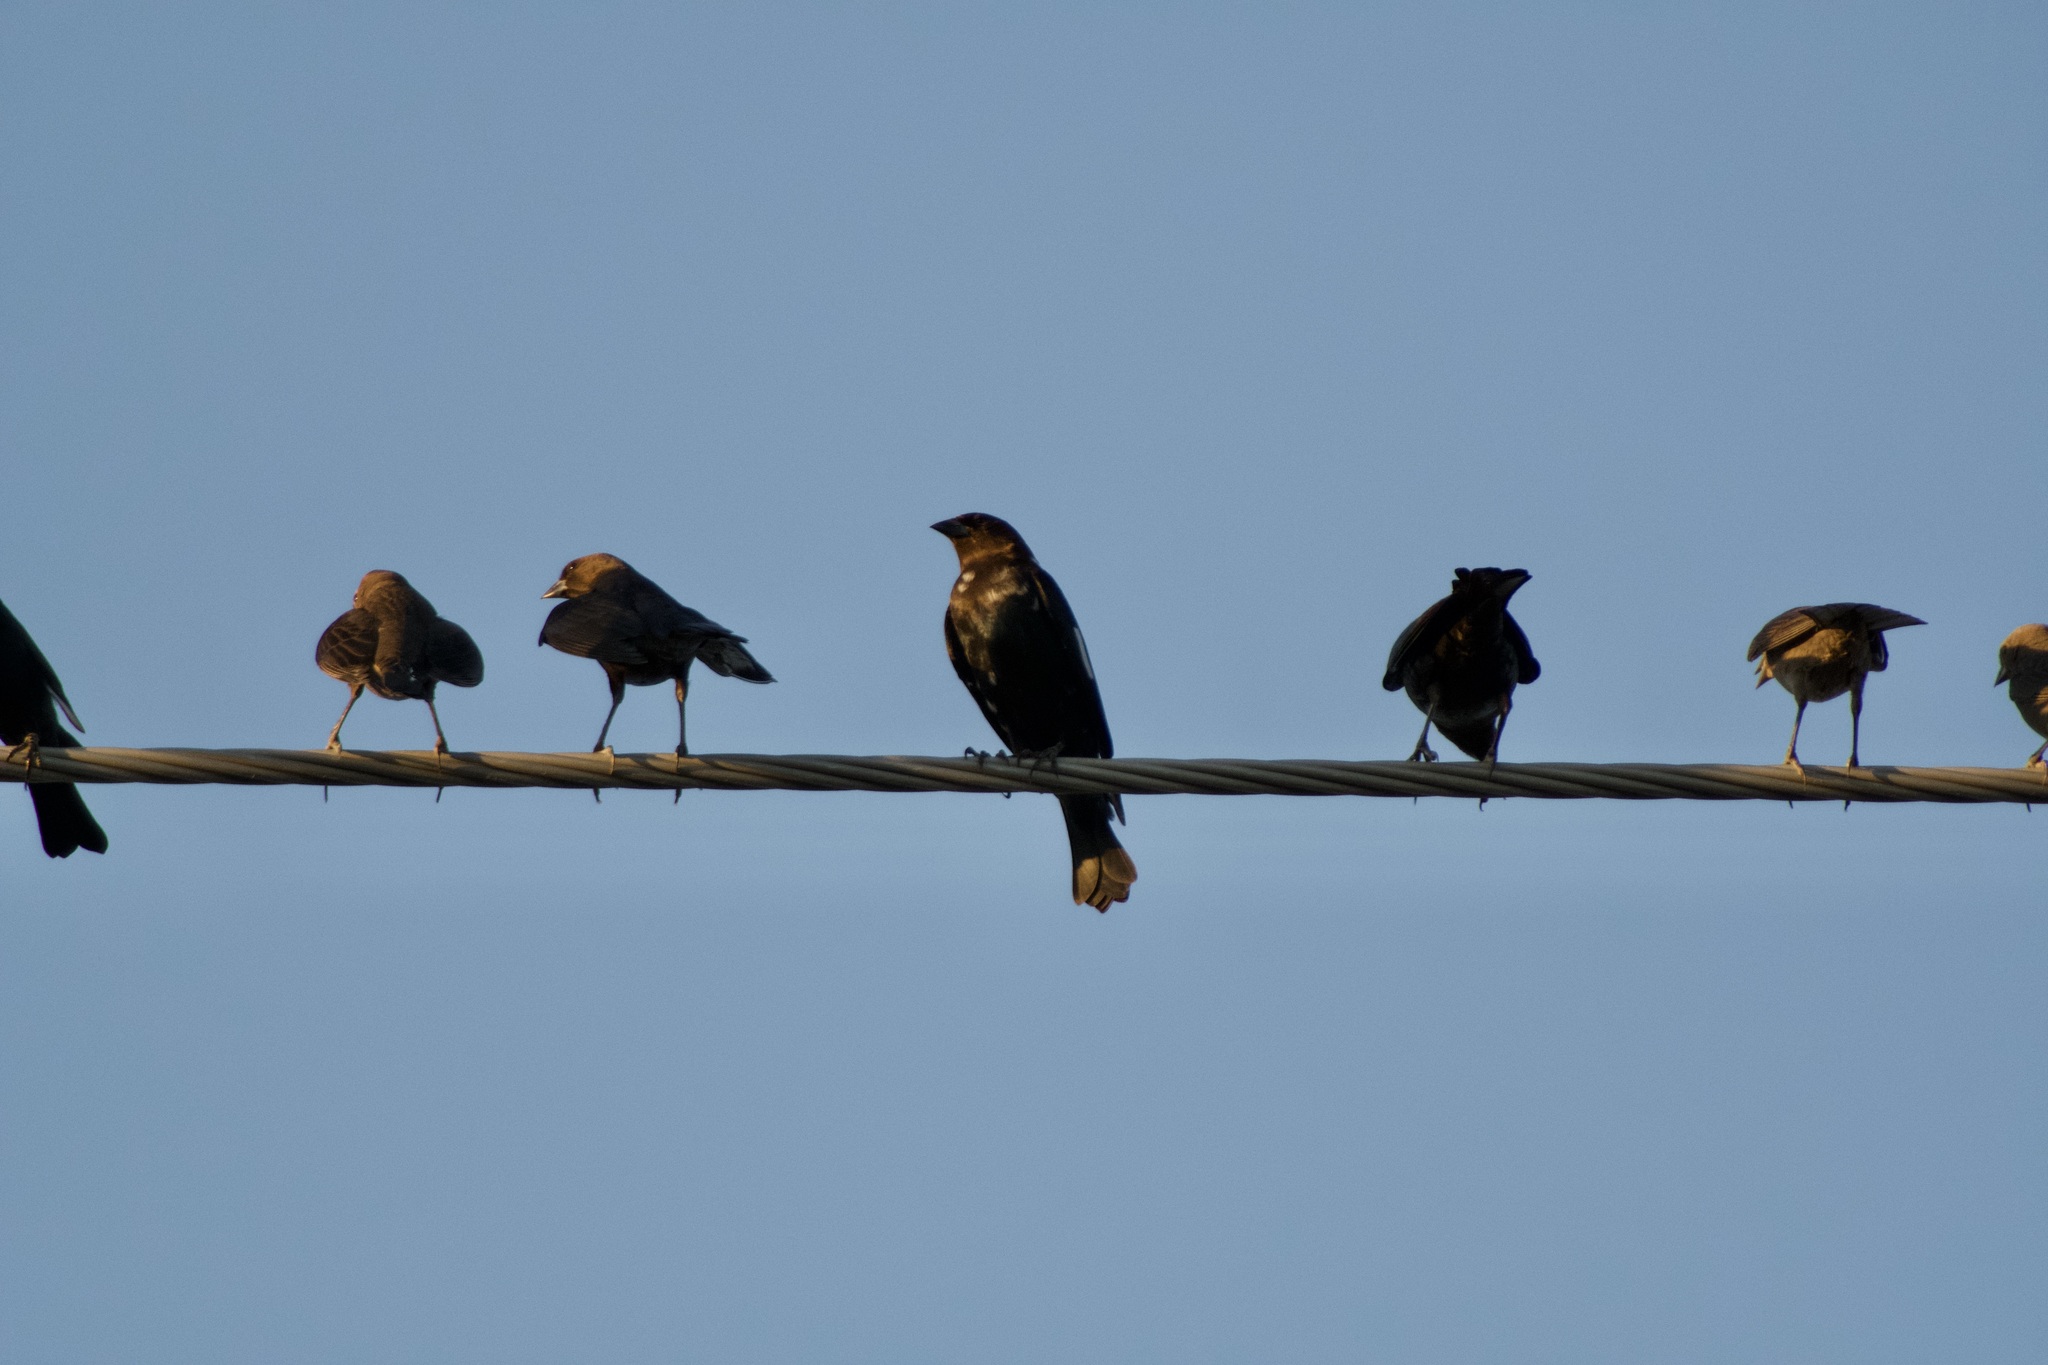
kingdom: Animalia
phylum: Chordata
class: Aves
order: Passeriformes
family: Icteridae
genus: Molothrus
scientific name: Molothrus ater
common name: Brown-headed cowbird
